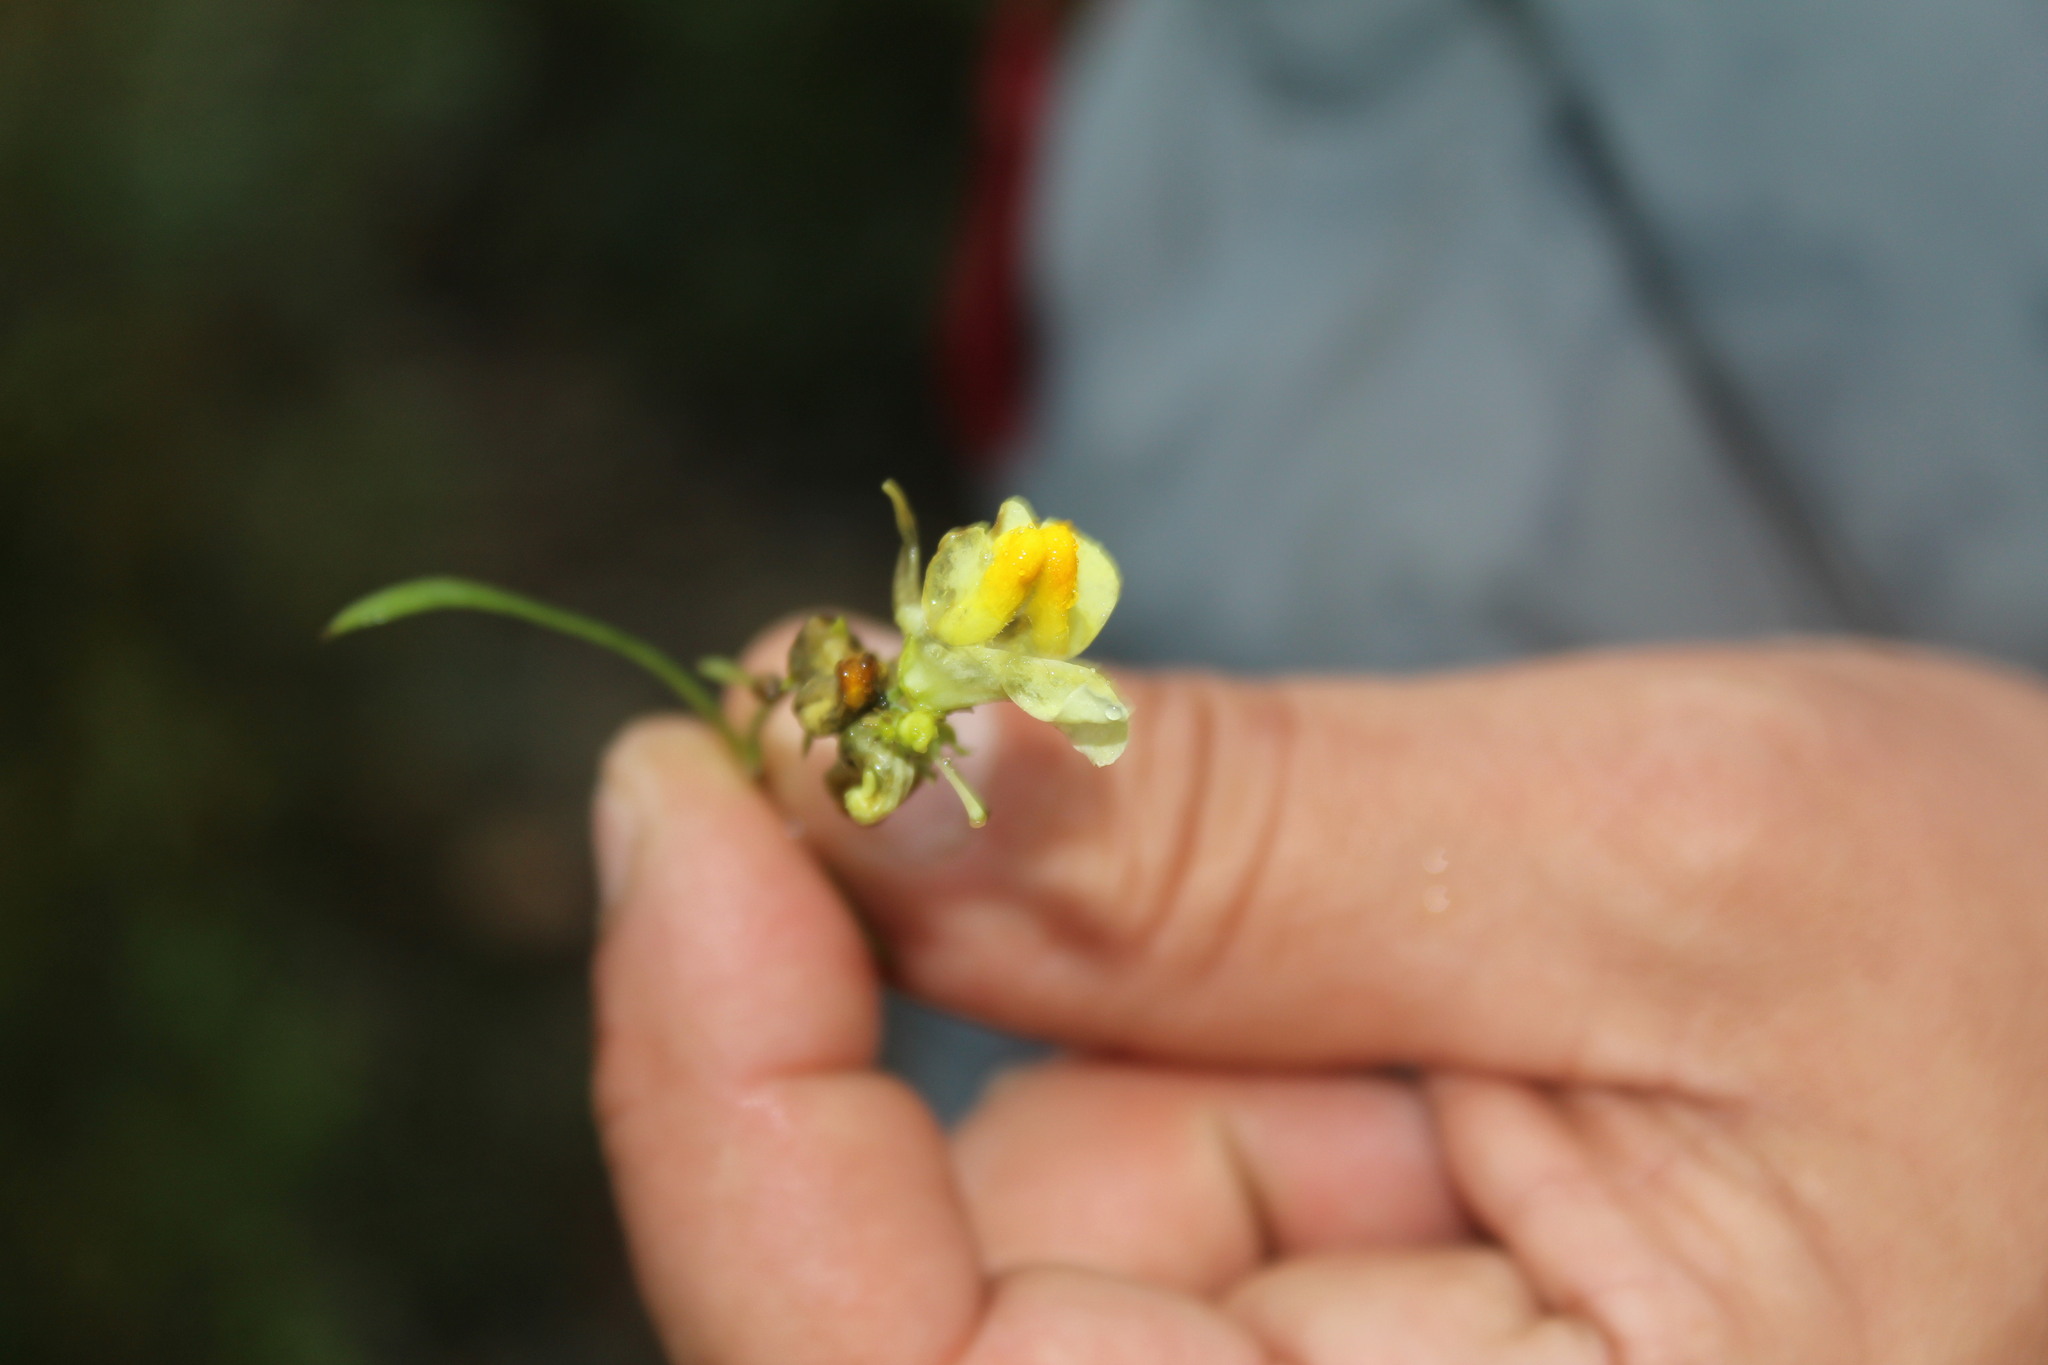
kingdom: Plantae
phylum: Tracheophyta
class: Magnoliopsida
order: Lamiales
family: Plantaginaceae
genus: Linaria
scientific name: Linaria vulgaris
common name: Butter and eggs
